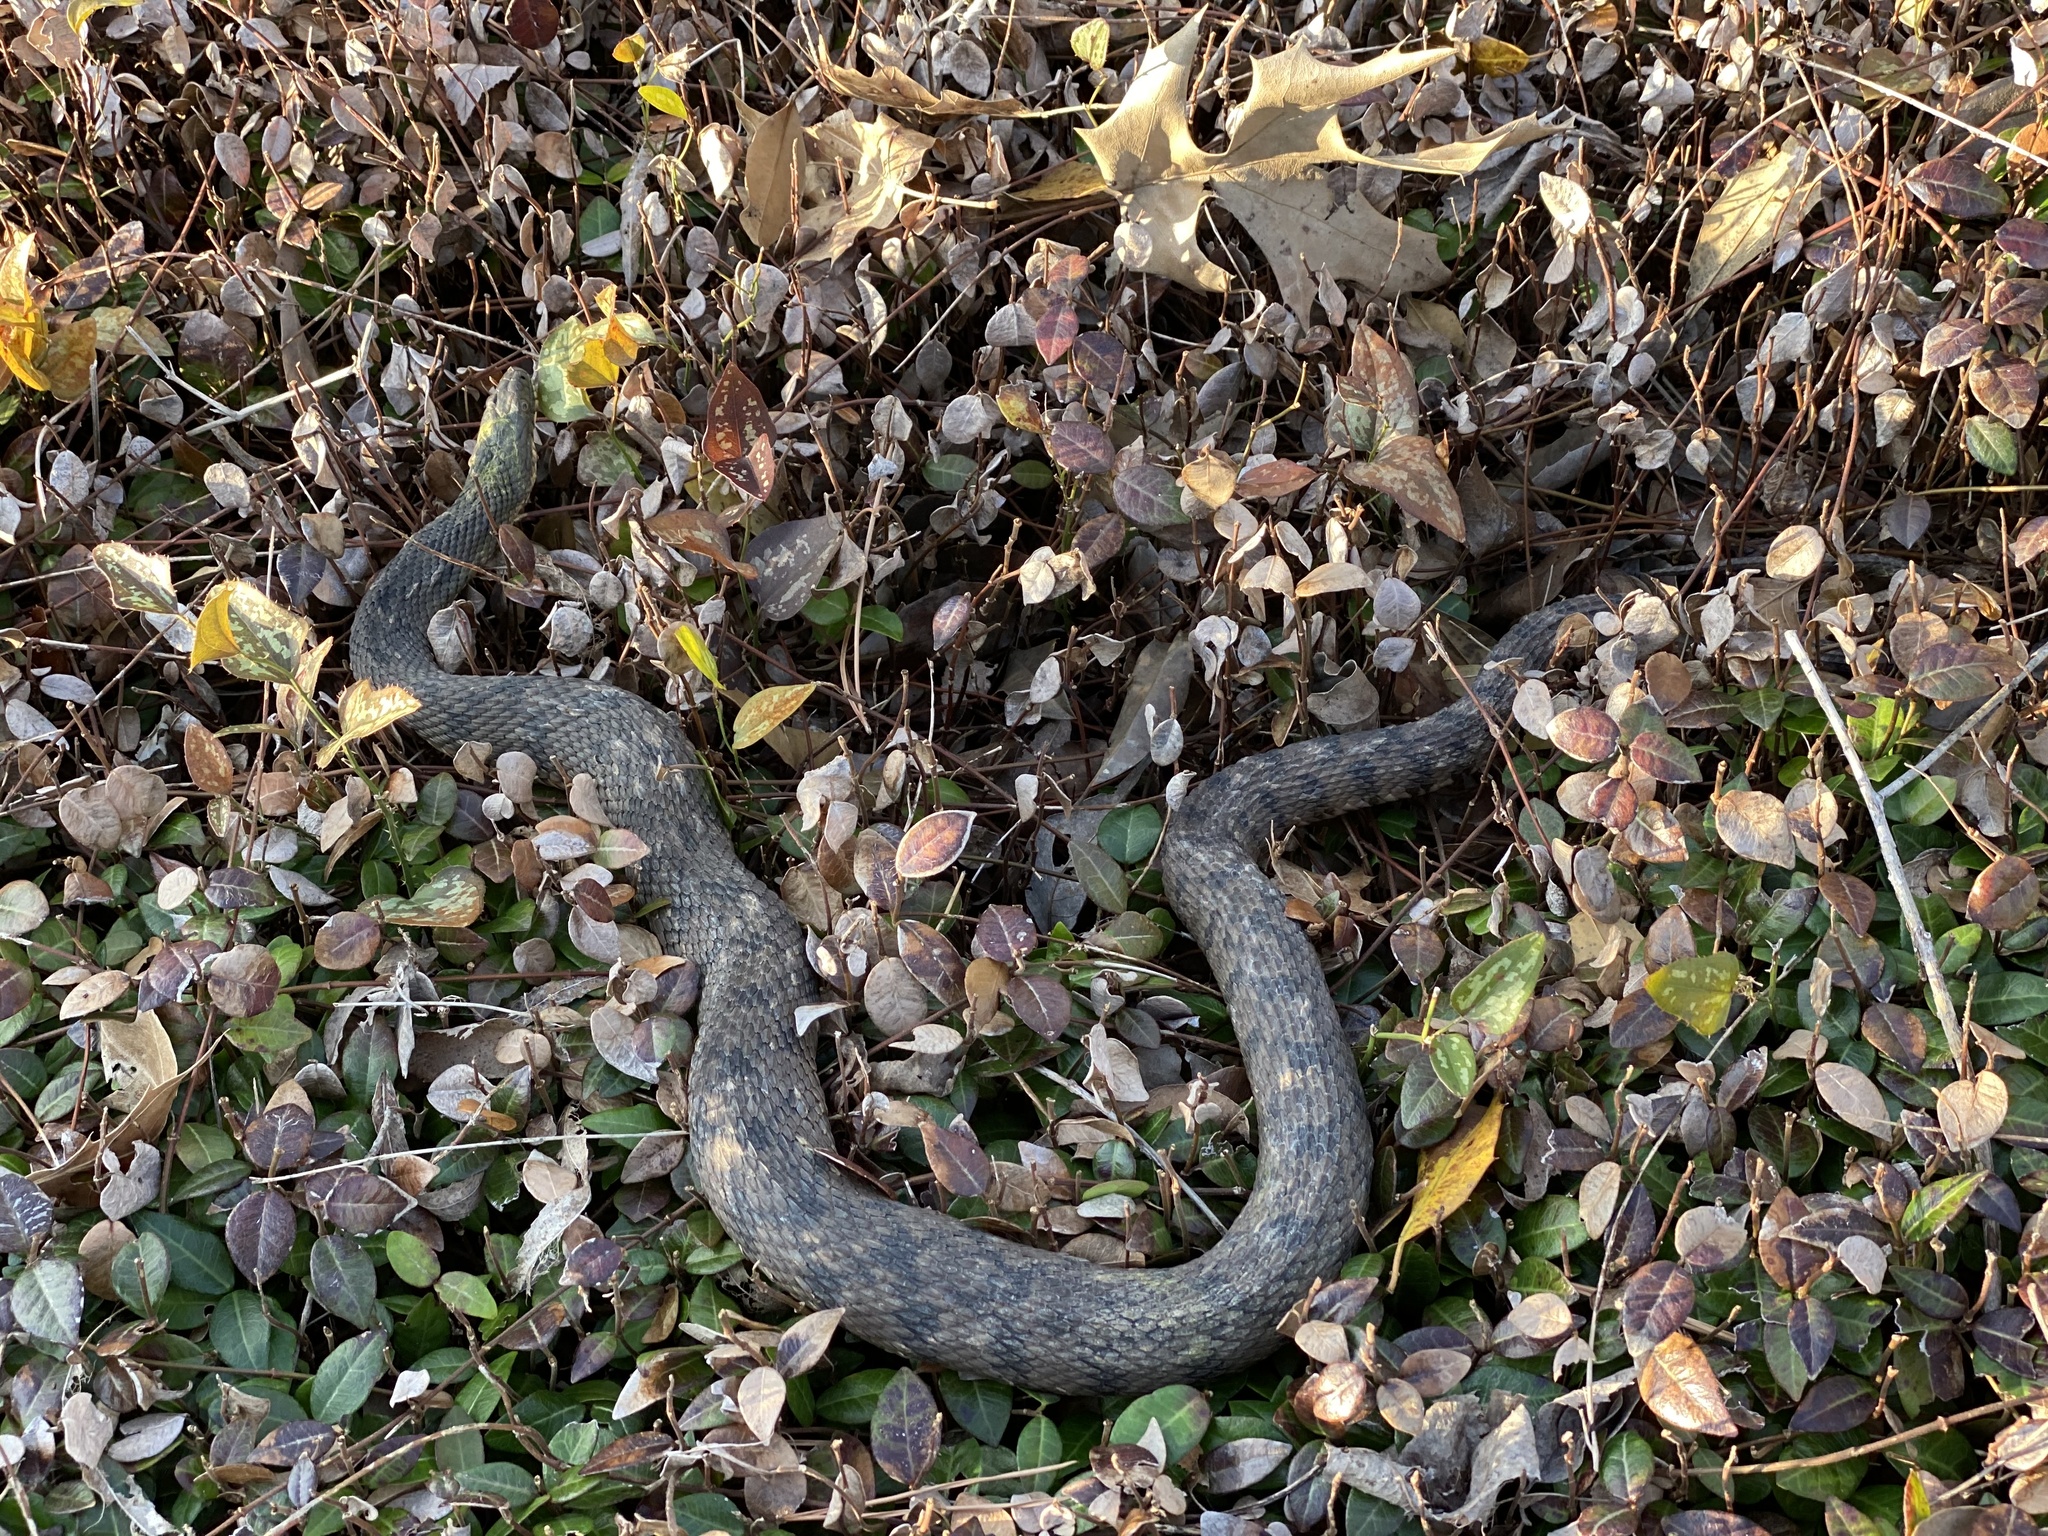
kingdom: Animalia
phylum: Chordata
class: Squamata
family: Colubridae
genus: Nerodia
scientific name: Nerodia rhombifer
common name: Diamondback water snake
